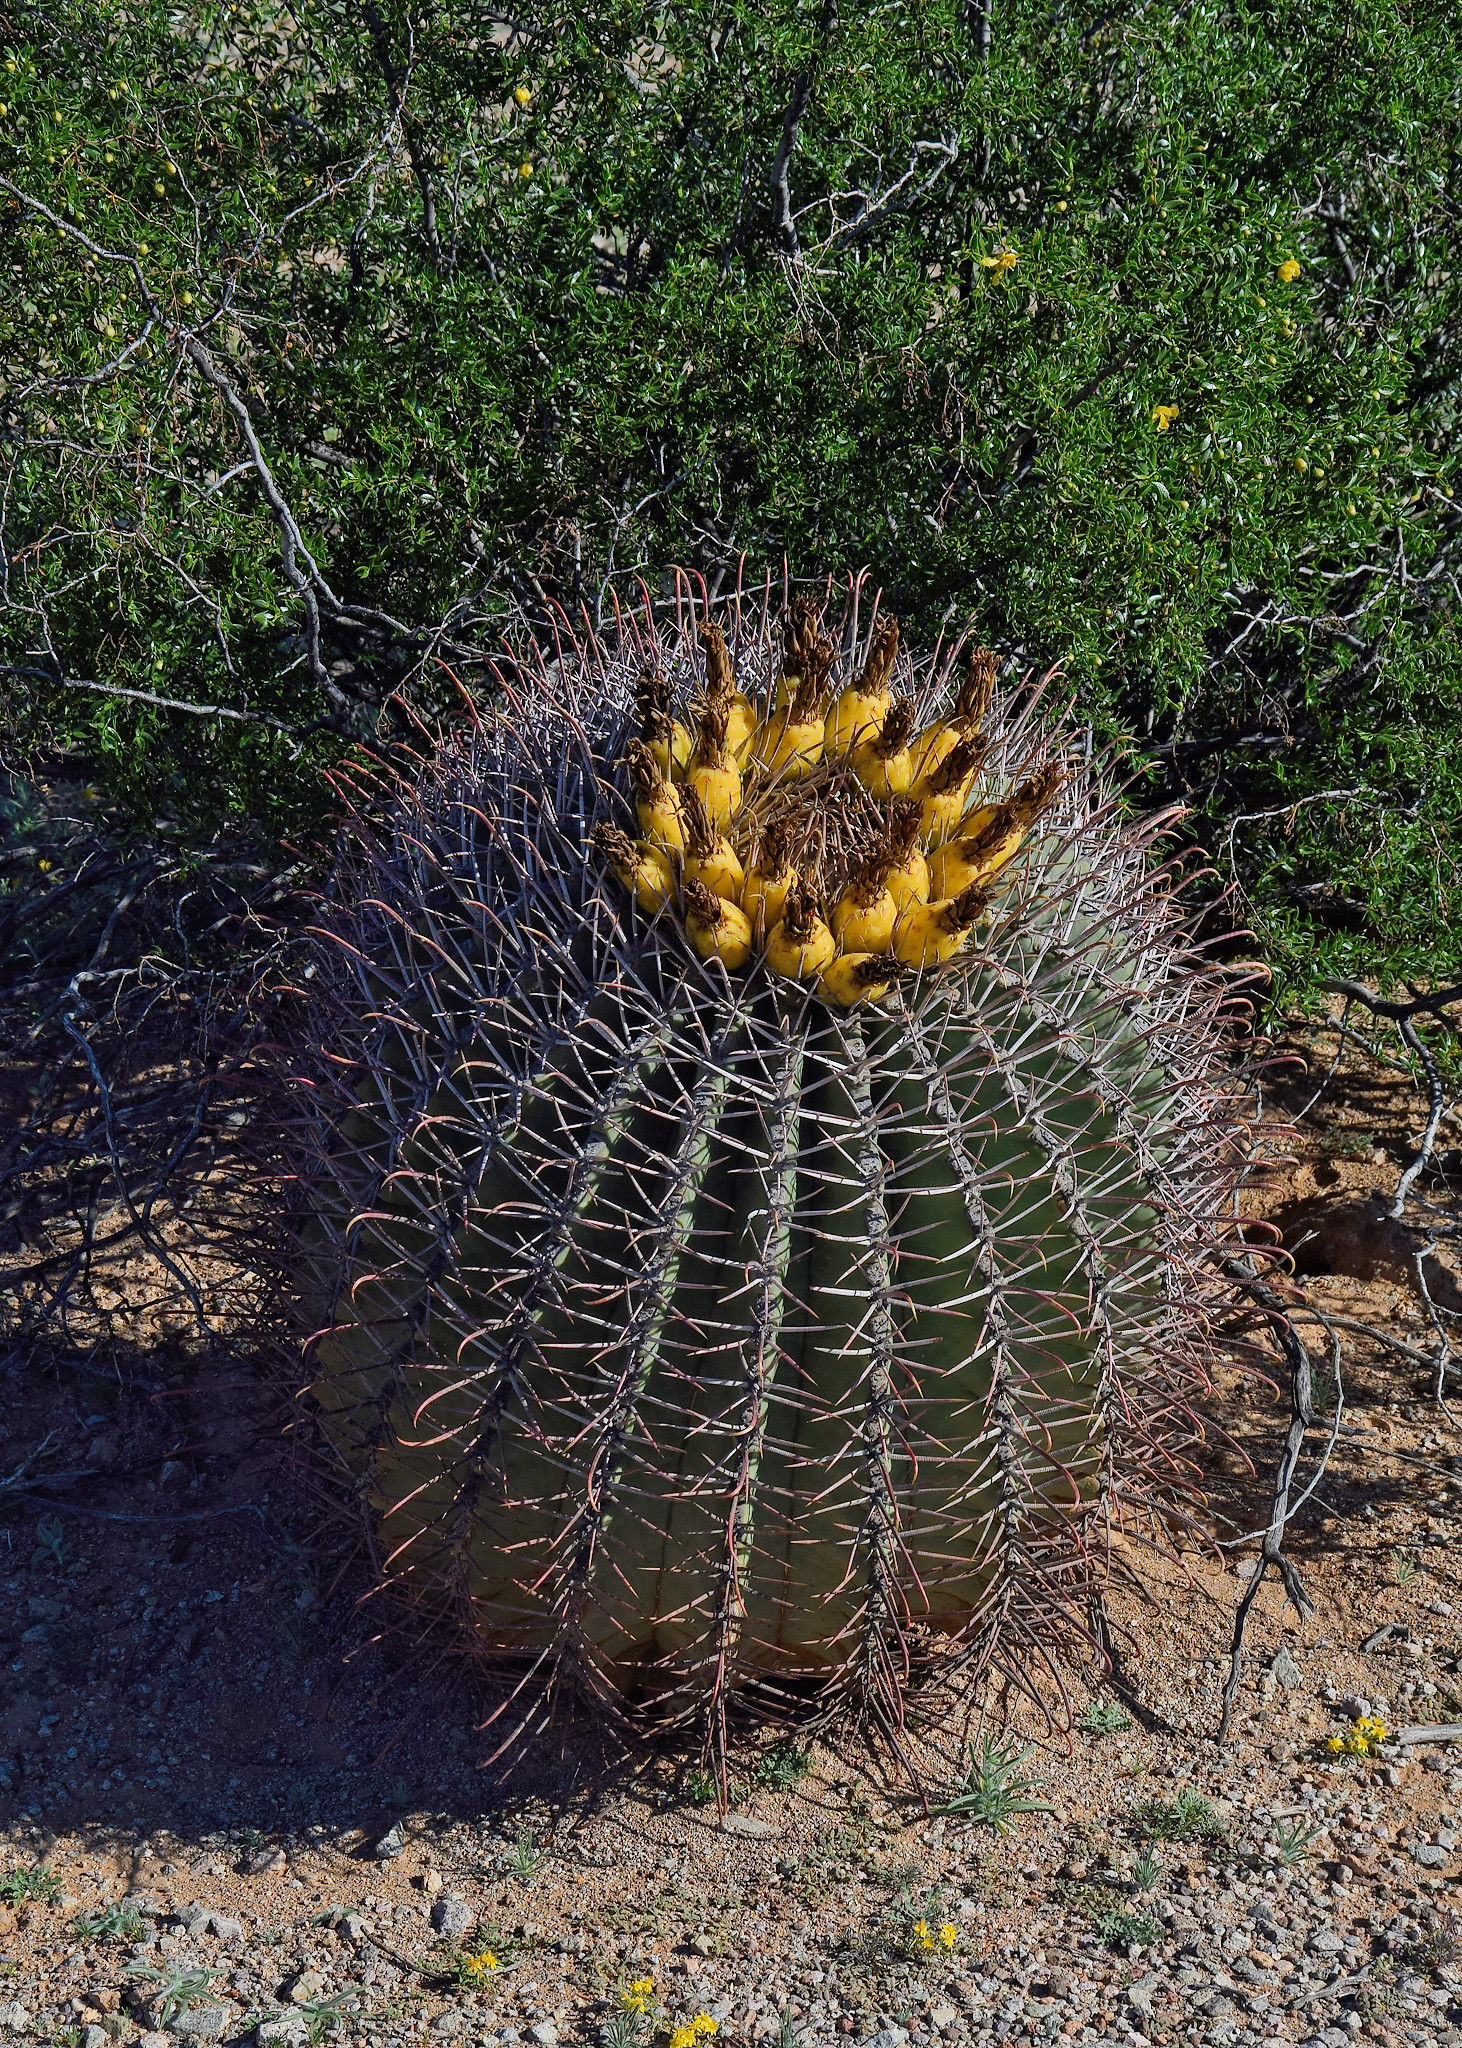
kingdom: Plantae
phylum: Tracheophyta
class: Magnoliopsida
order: Caryophyllales
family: Cactaceae
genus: Ferocactus
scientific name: Ferocactus emoryi
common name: Emory's barrel cactus
